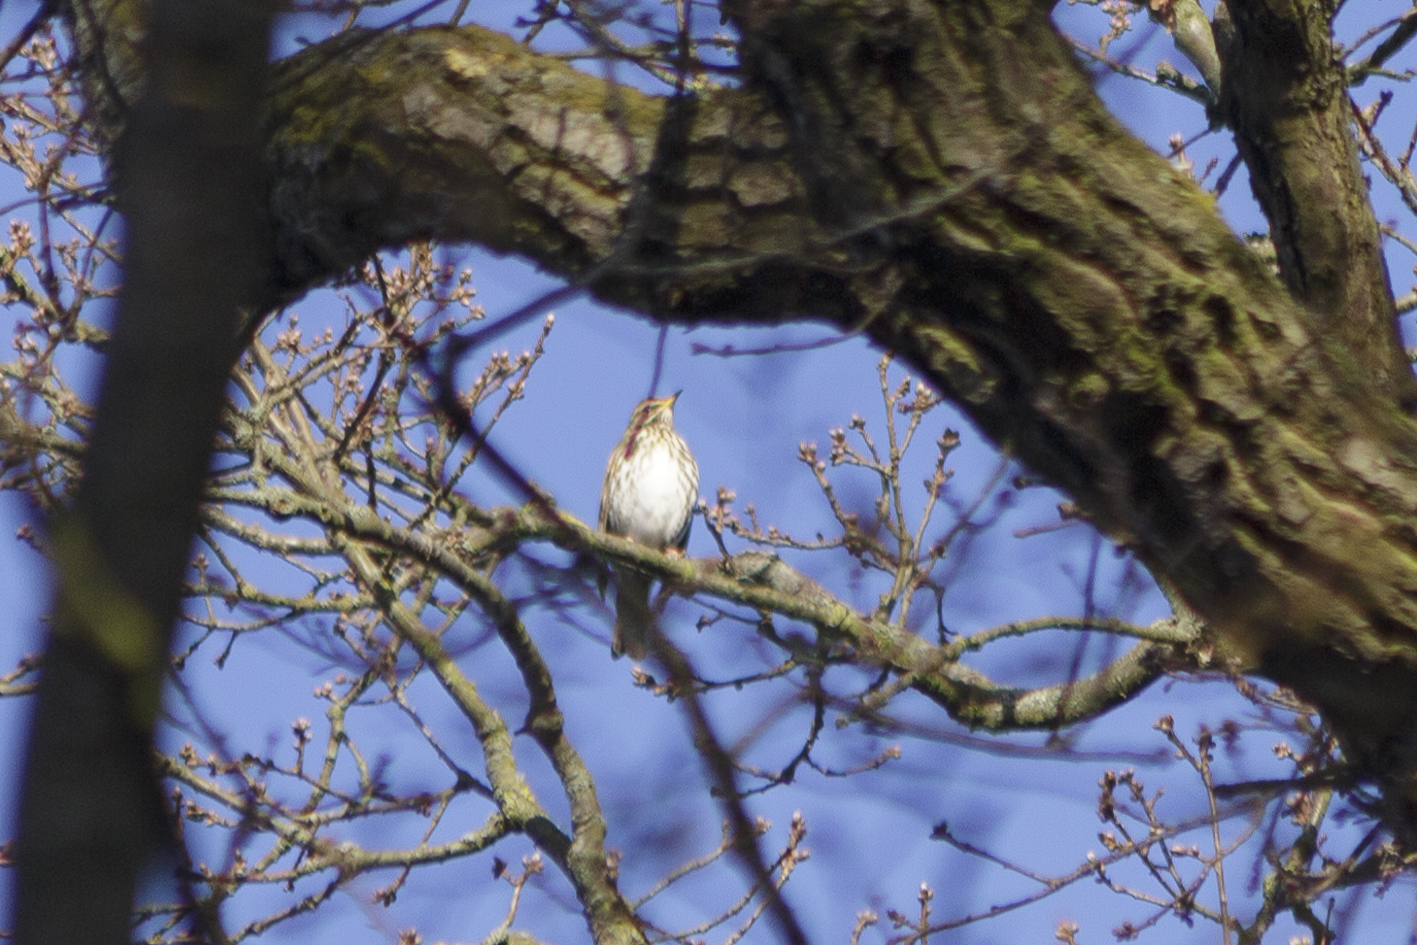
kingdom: Animalia
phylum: Chordata
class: Aves
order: Passeriformes
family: Turdidae
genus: Turdus
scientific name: Turdus iliacus
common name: Redwing
